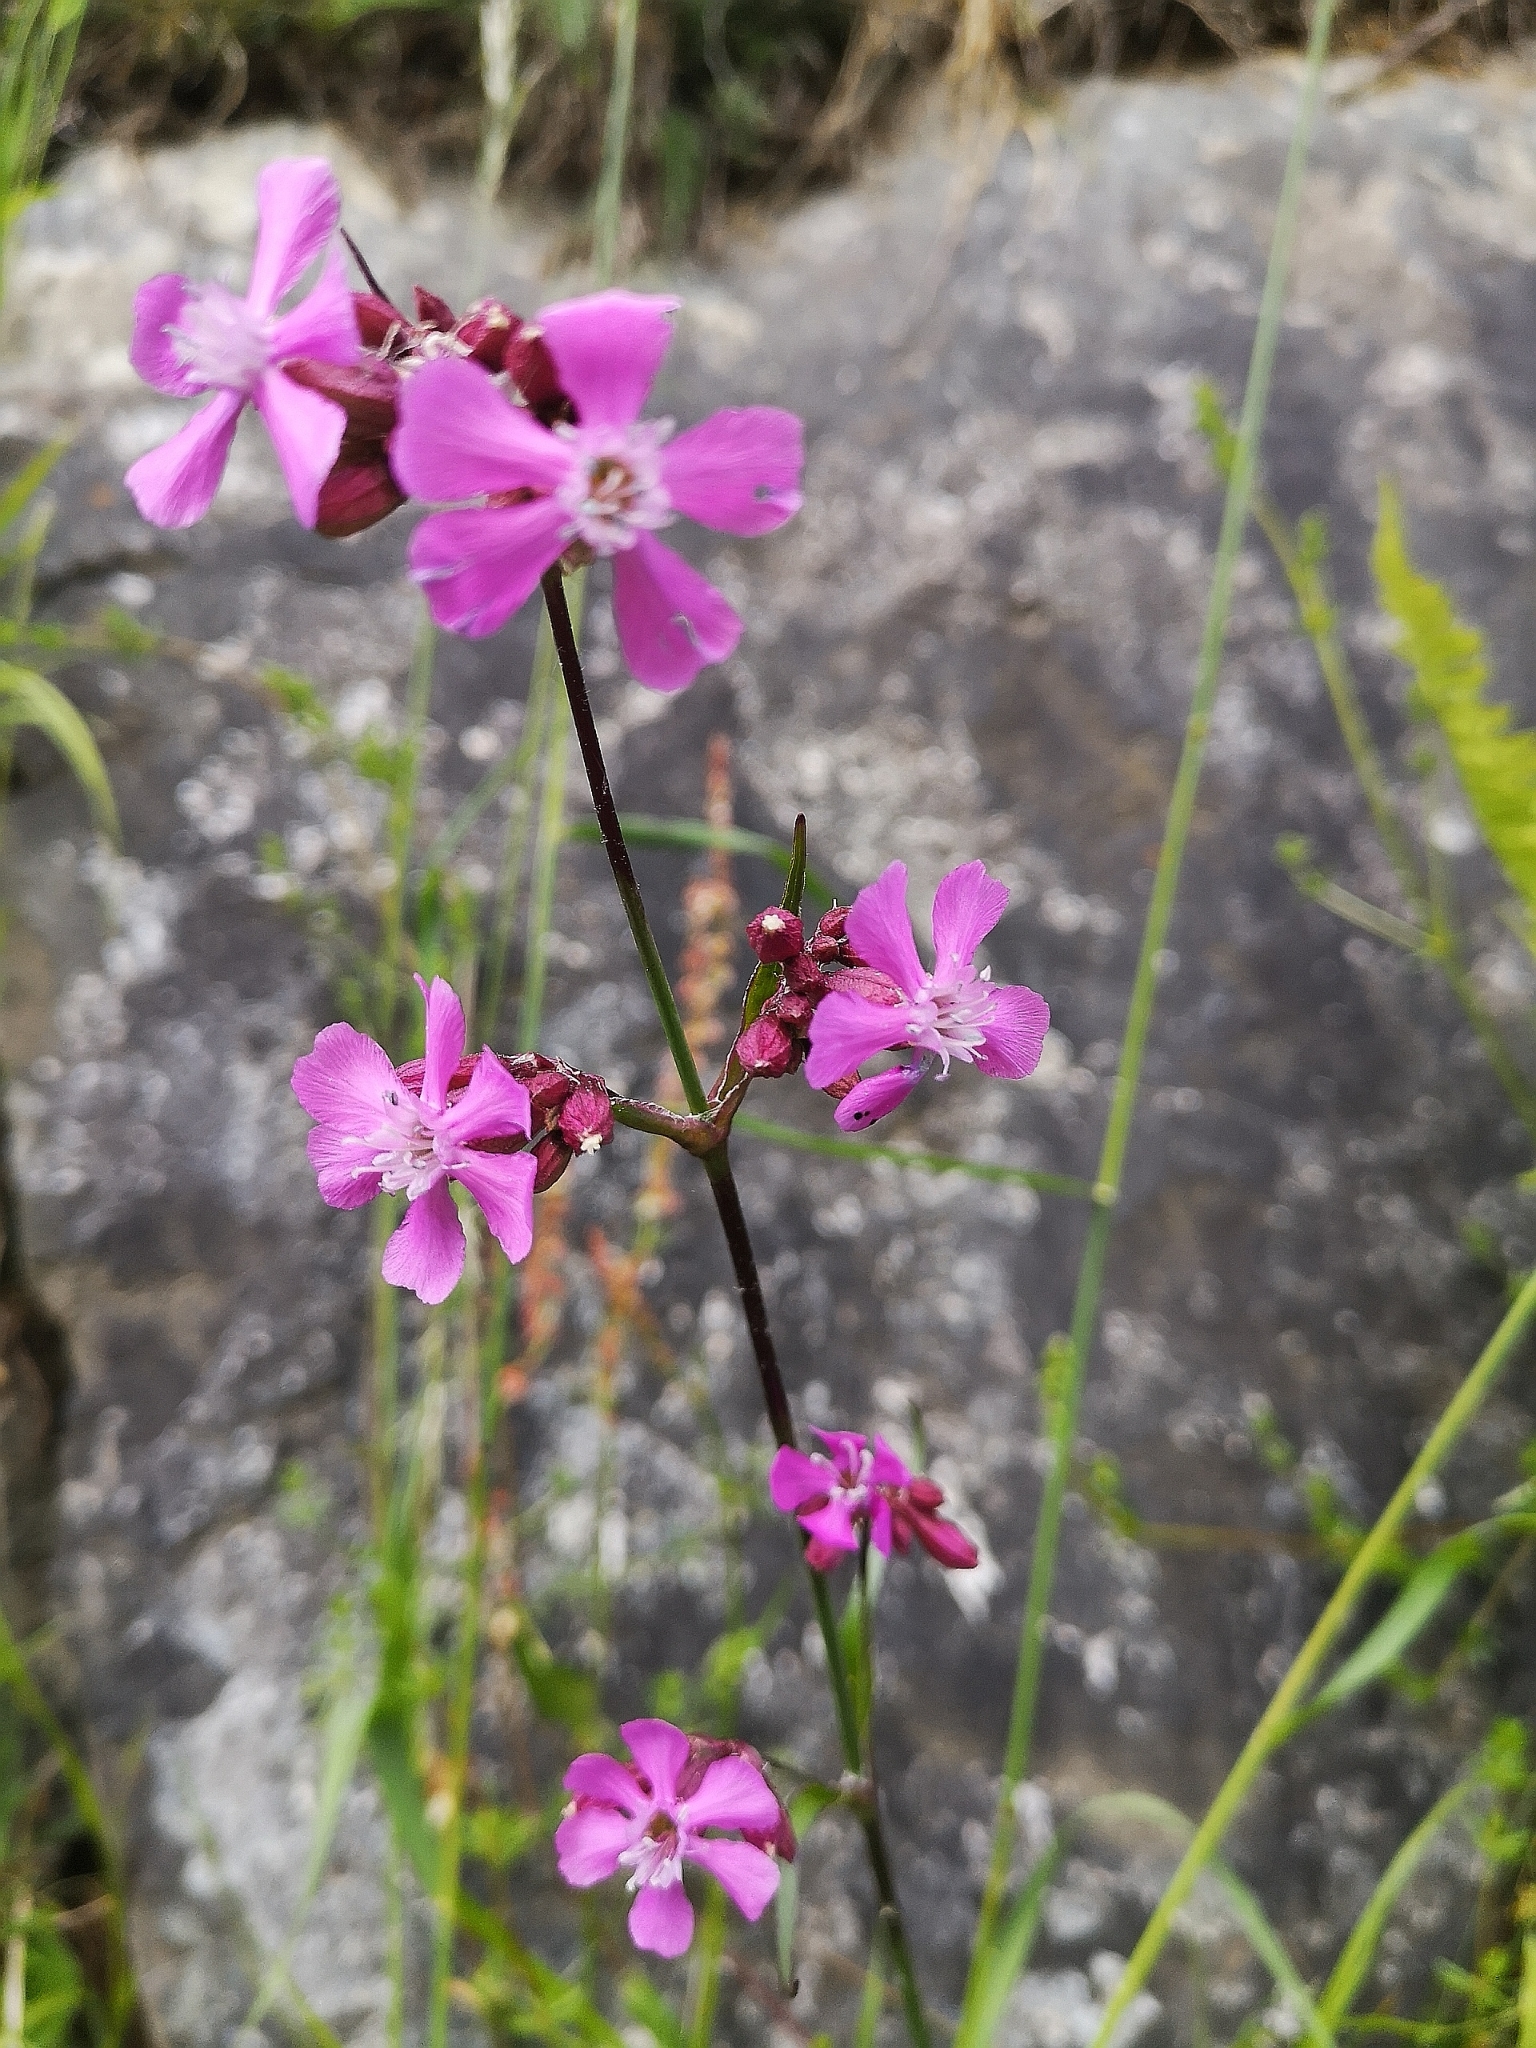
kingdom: Plantae
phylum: Tracheophyta
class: Magnoliopsida
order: Caryophyllales
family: Caryophyllaceae
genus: Viscaria
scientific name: Viscaria vulgaris
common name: Clammy campion
